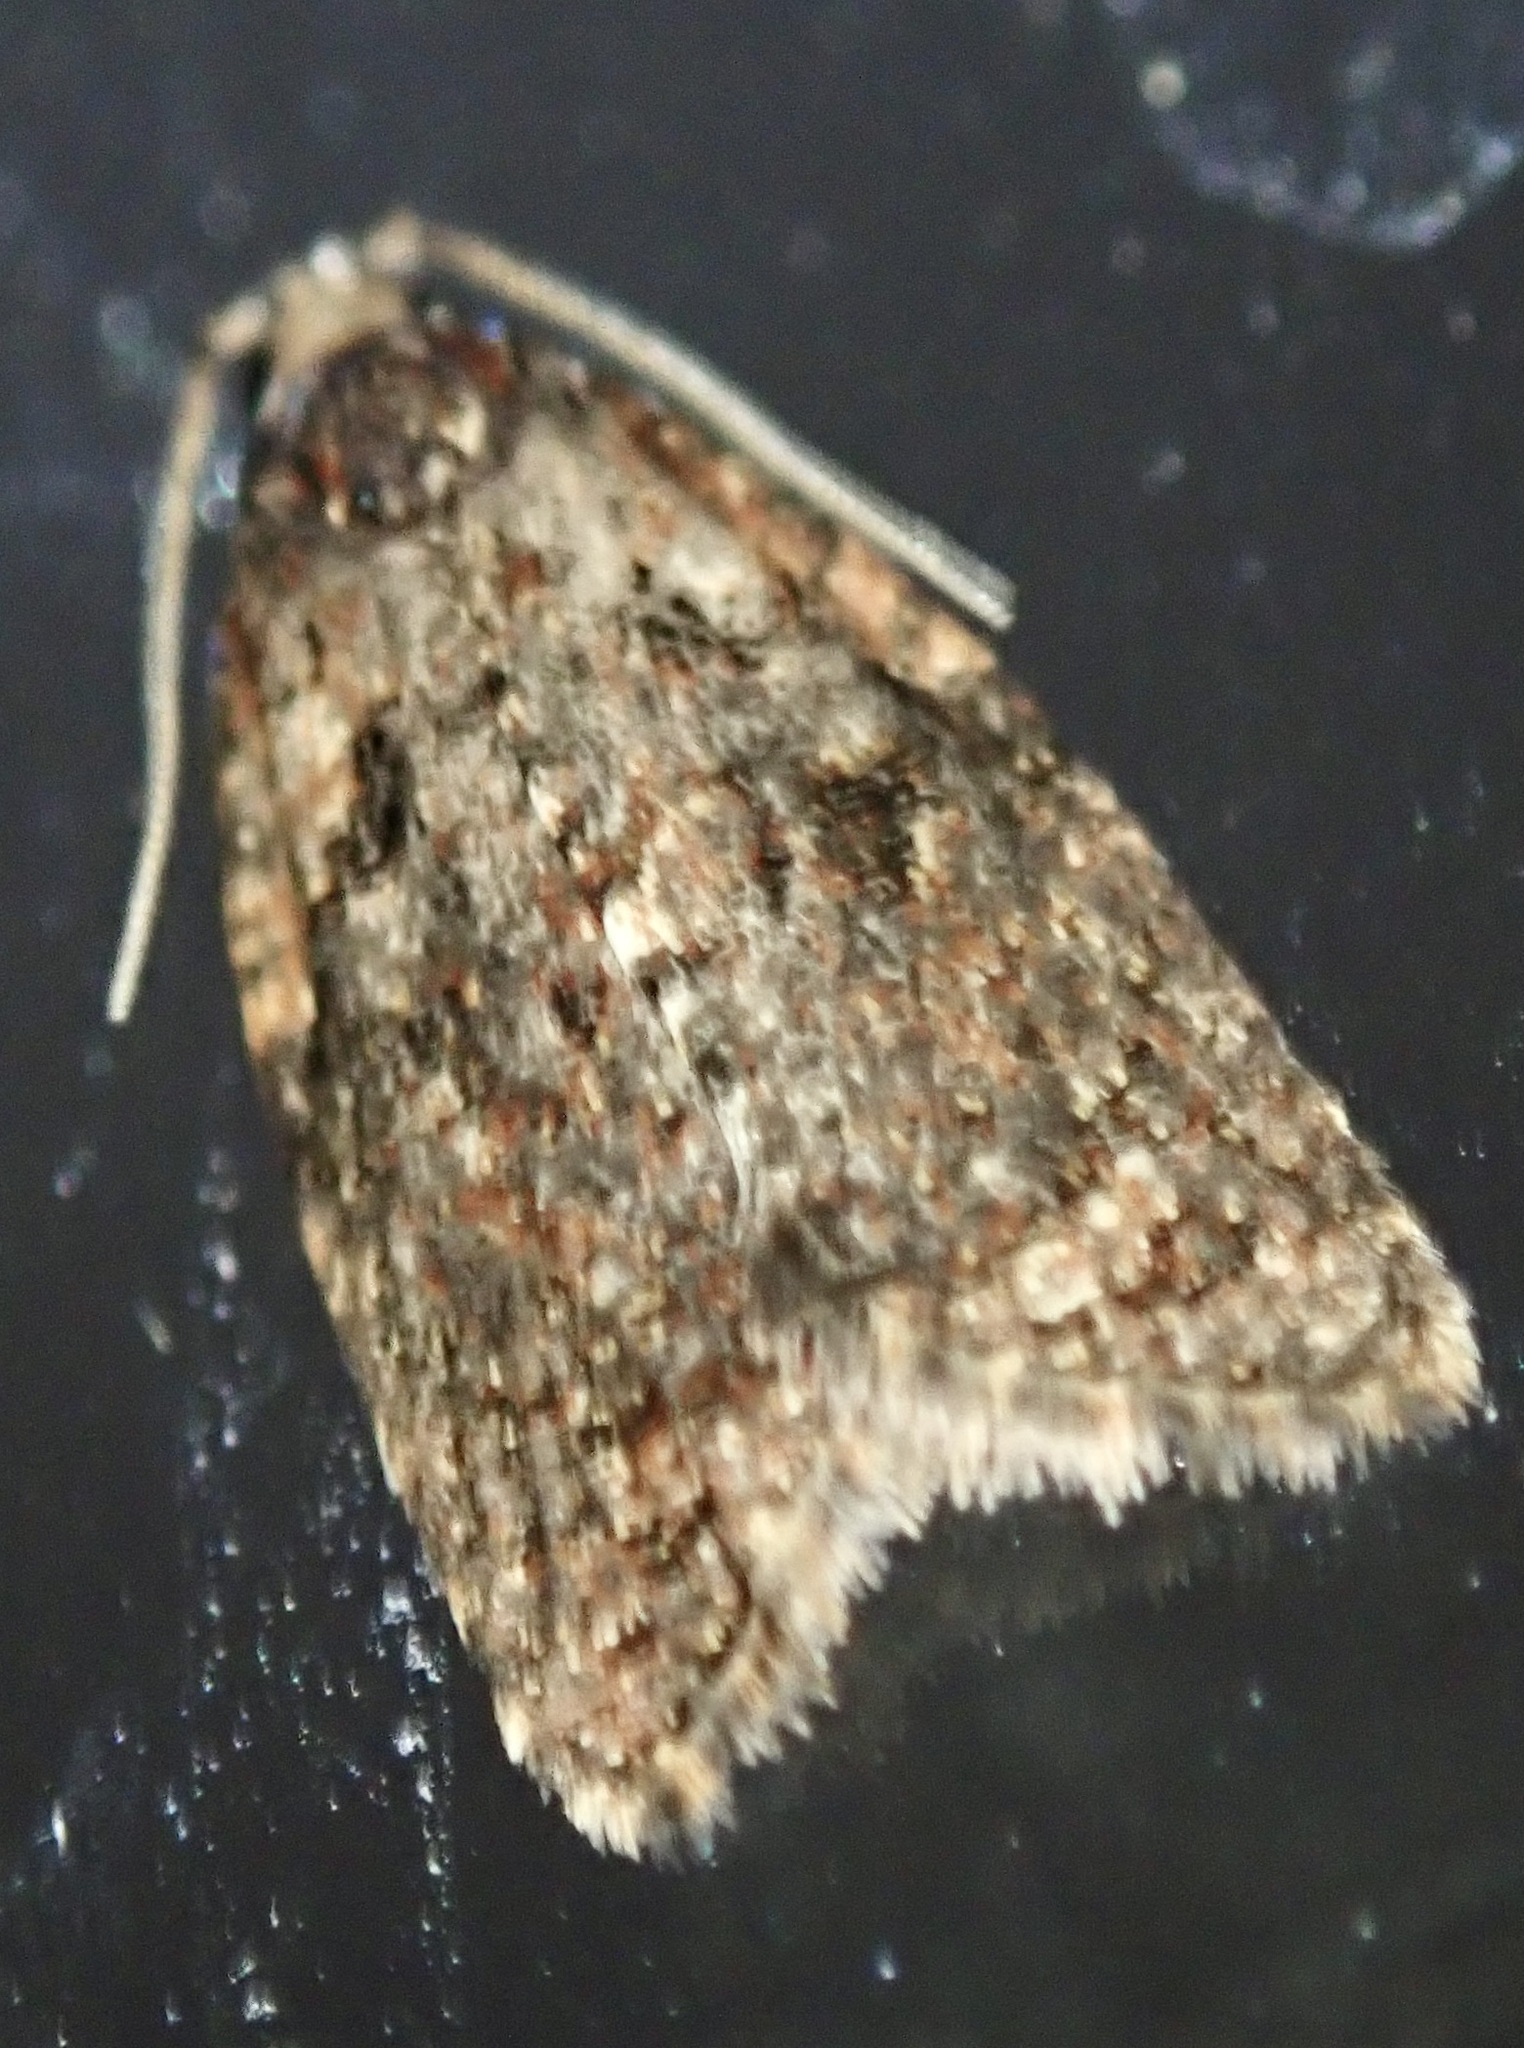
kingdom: Animalia
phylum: Arthropoda
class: Insecta
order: Lepidoptera
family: Tortricidae
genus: Capua
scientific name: Capua intractana
